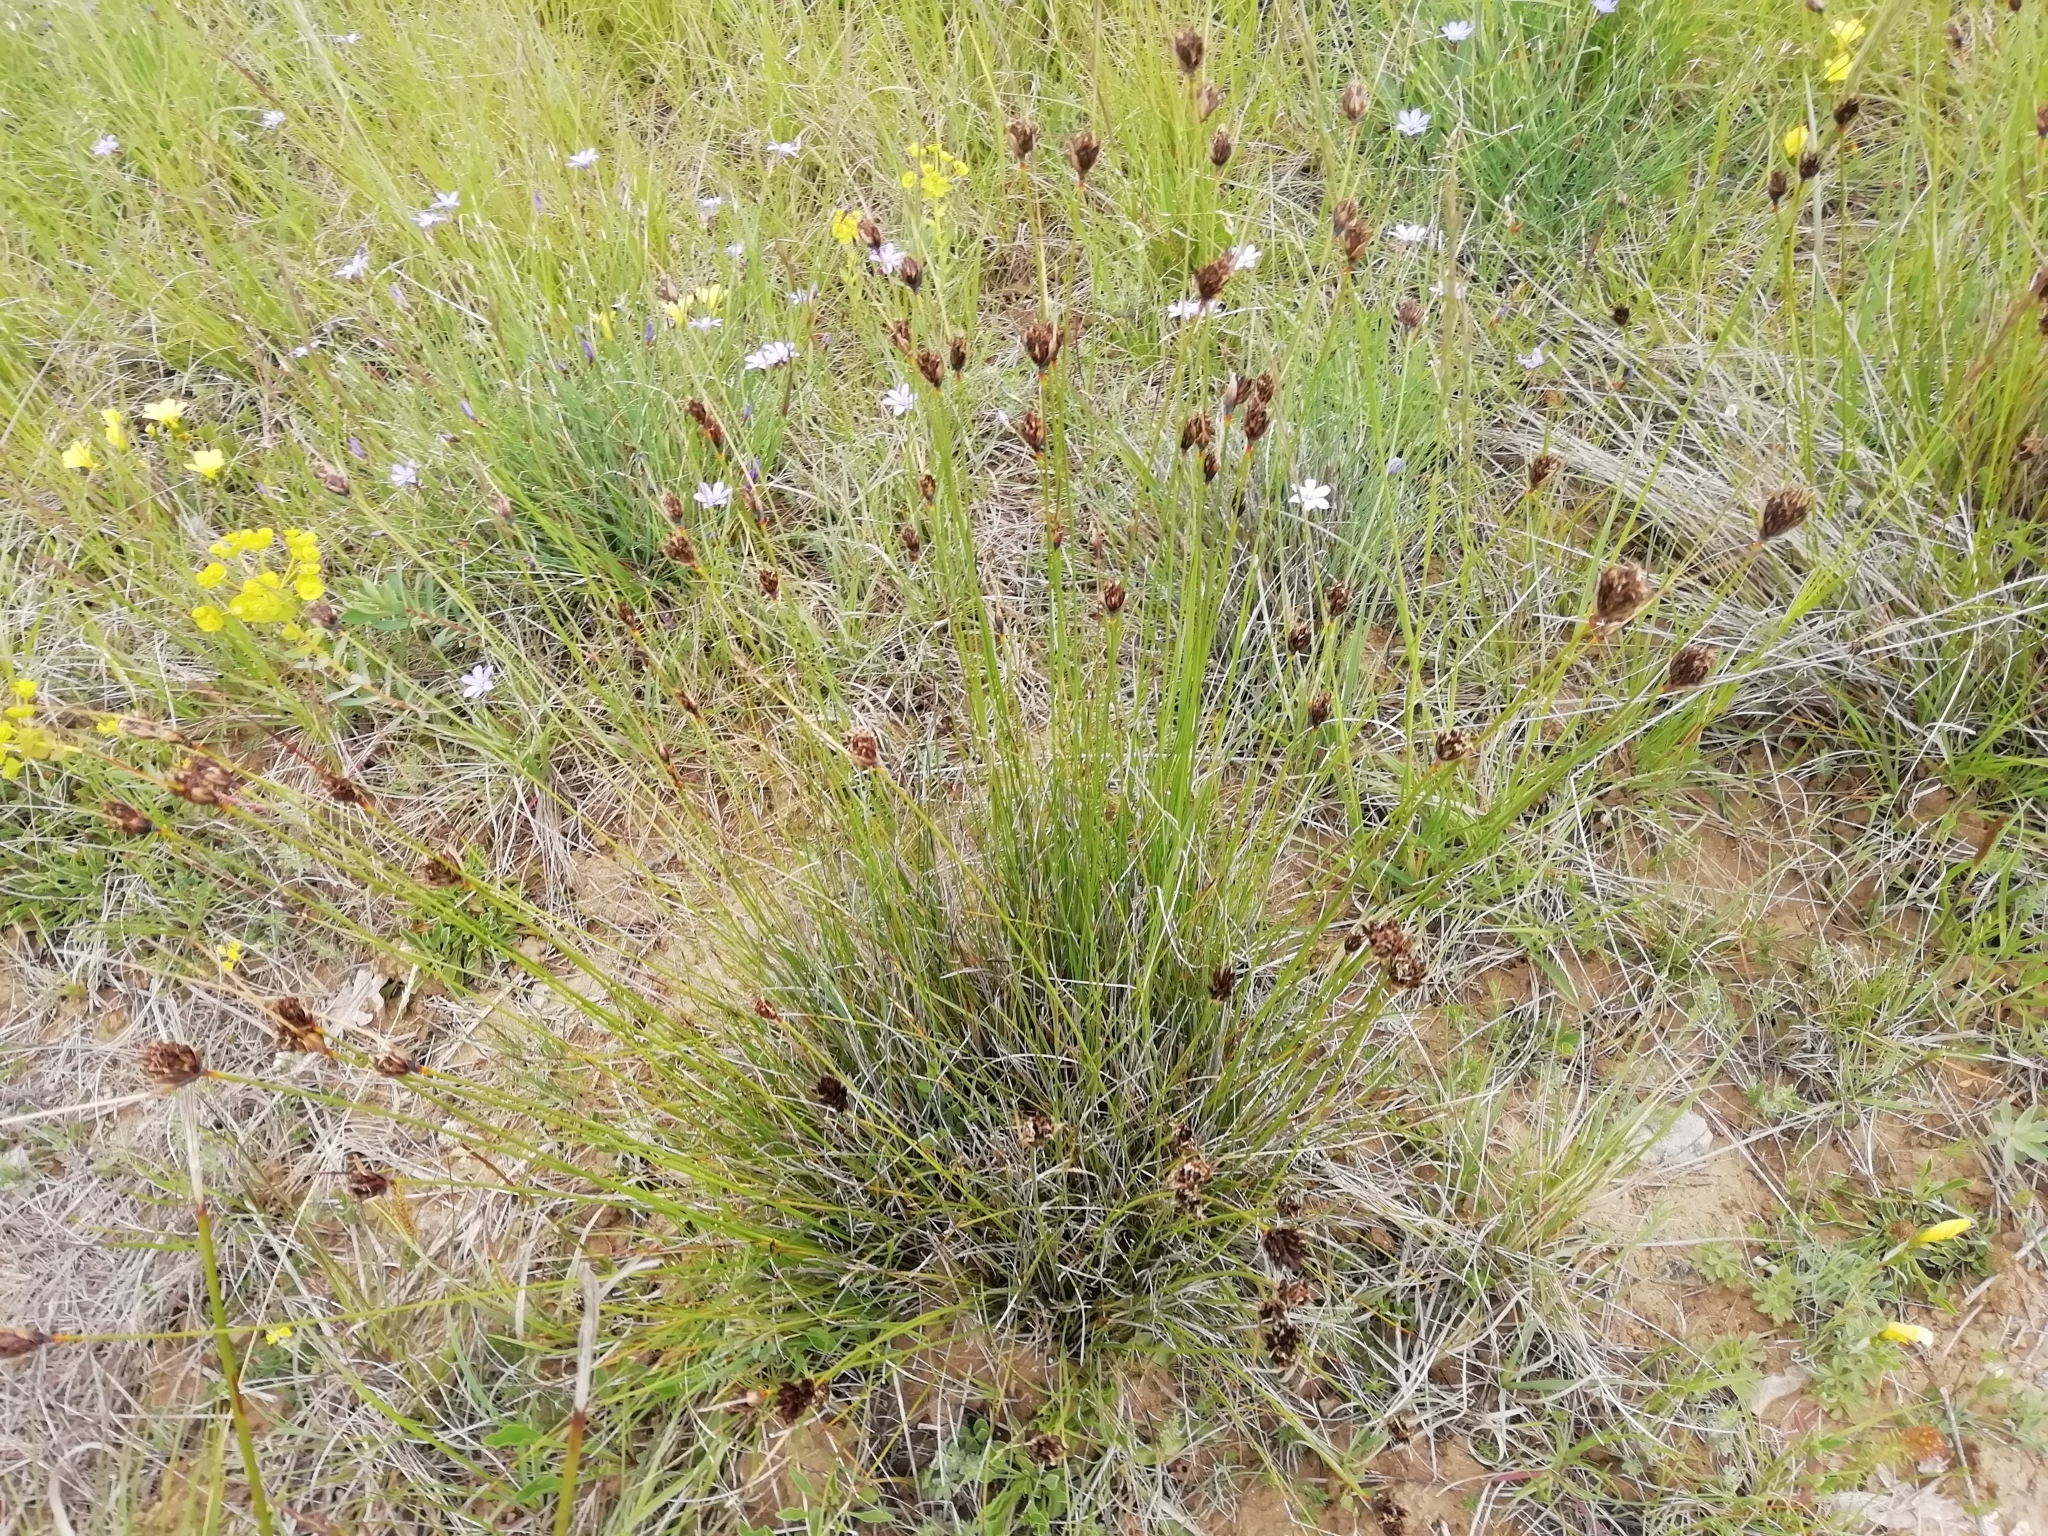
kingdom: Plantae
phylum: Tracheophyta
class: Liliopsida
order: Poales
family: Cyperaceae
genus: Schoenus
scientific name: Schoenus nigricans
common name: Black bog-rush
